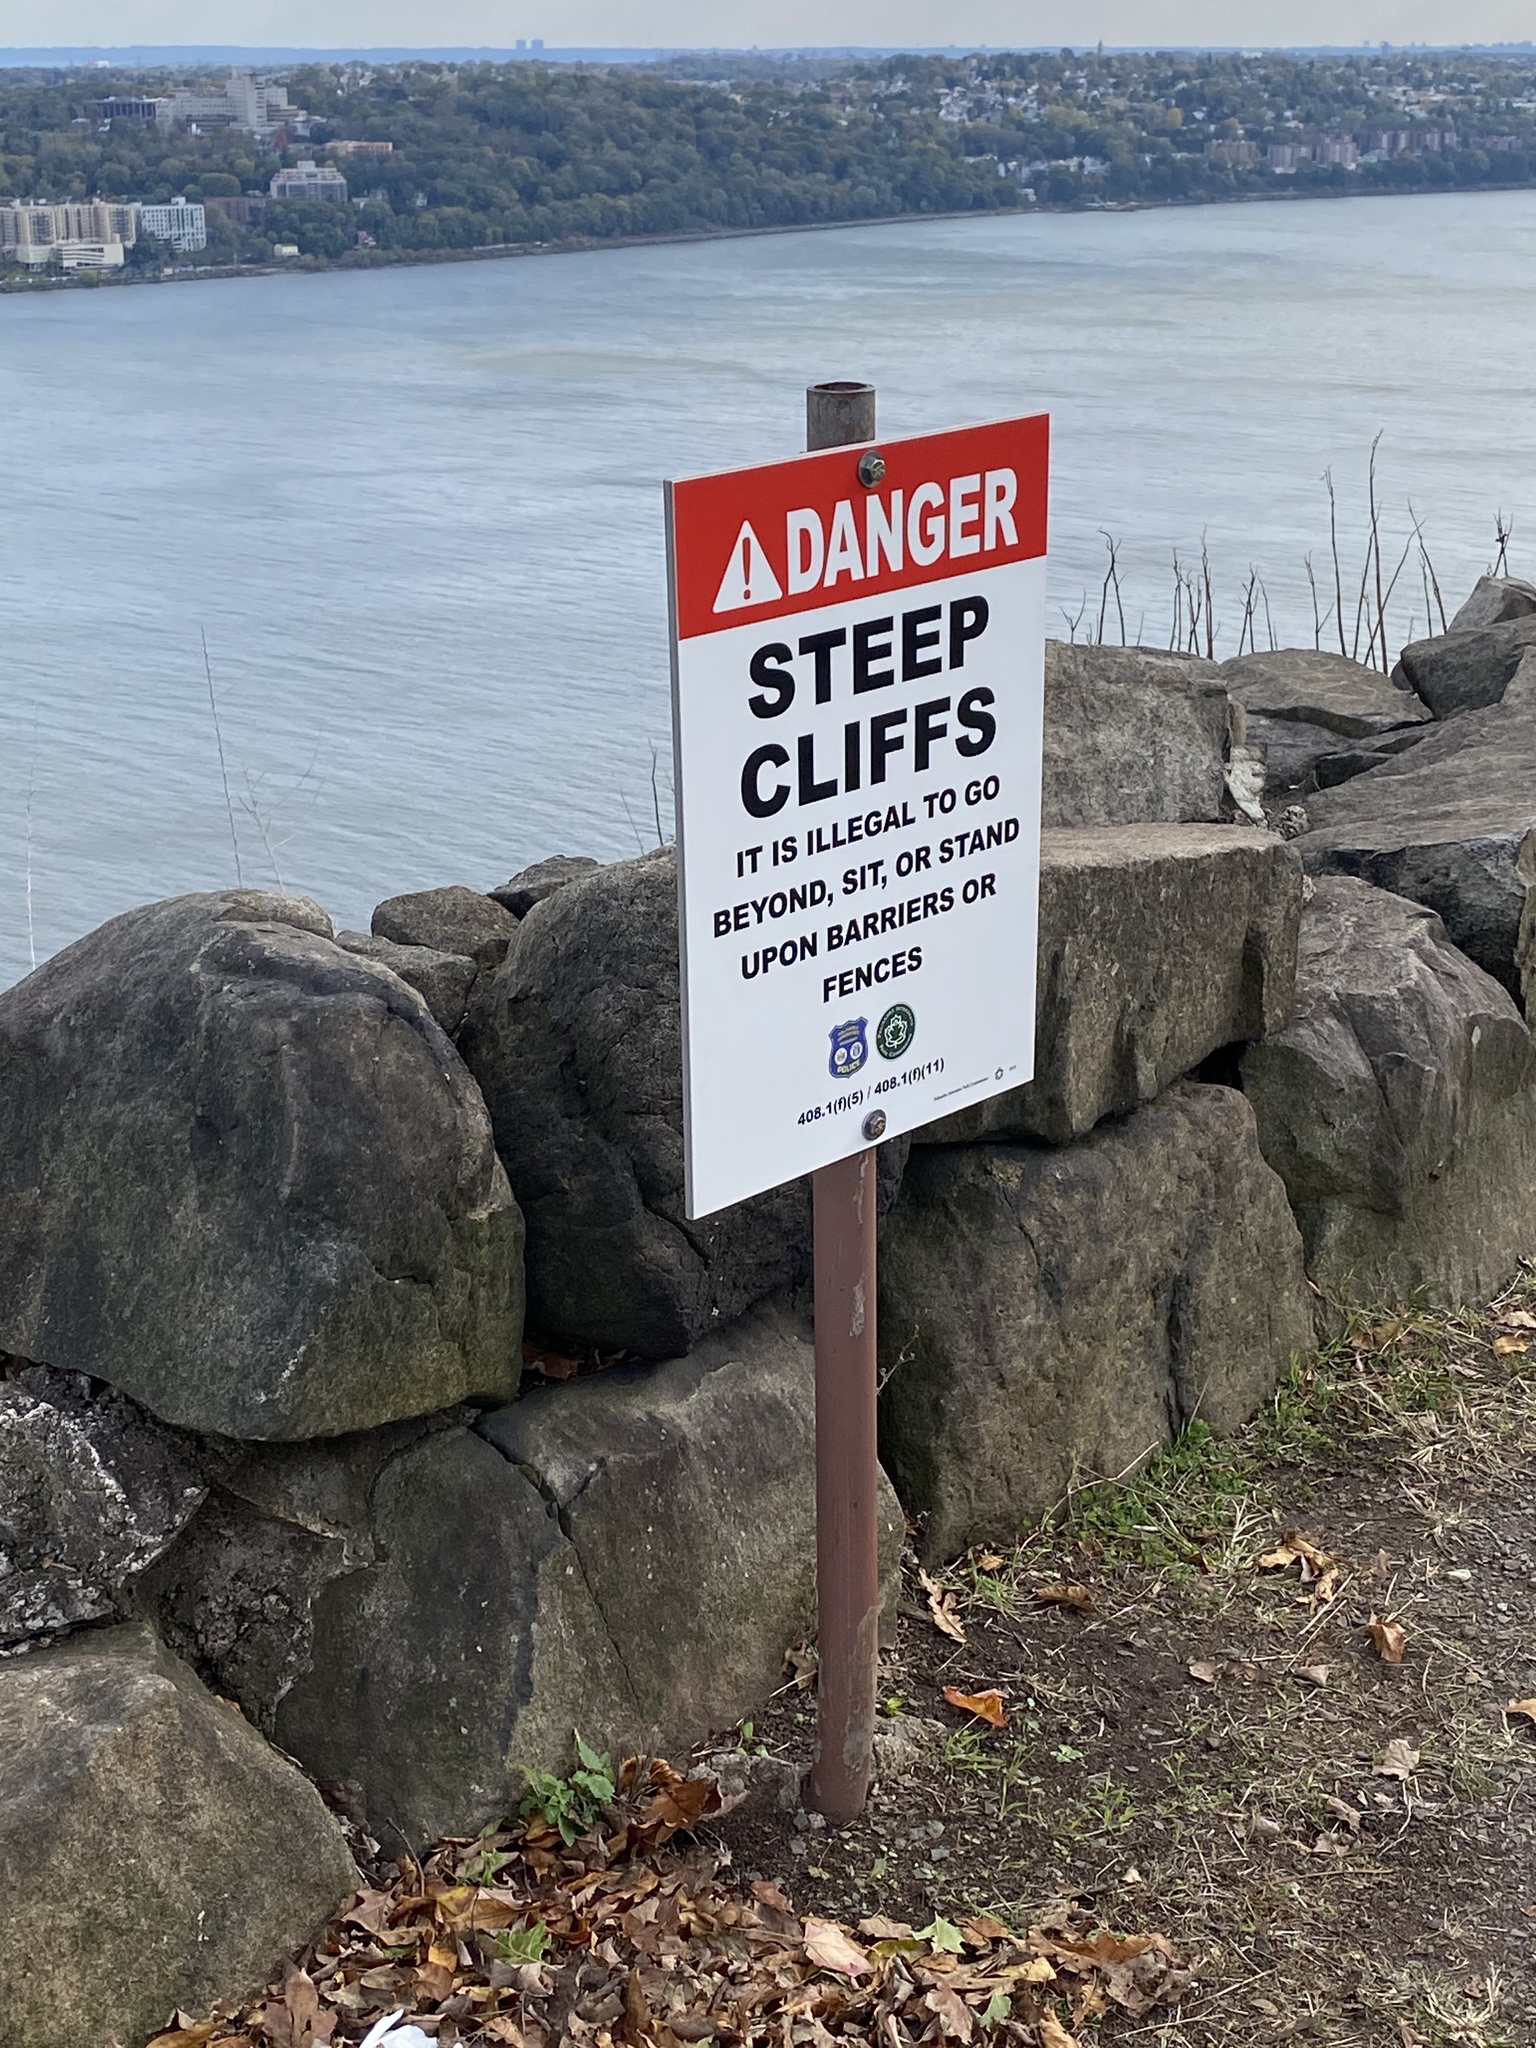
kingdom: Plantae
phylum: Tracheophyta
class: Pinopsida
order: Pinales
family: Cupressaceae
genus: Juniperus
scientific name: Juniperus virginiana
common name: Red juniper
